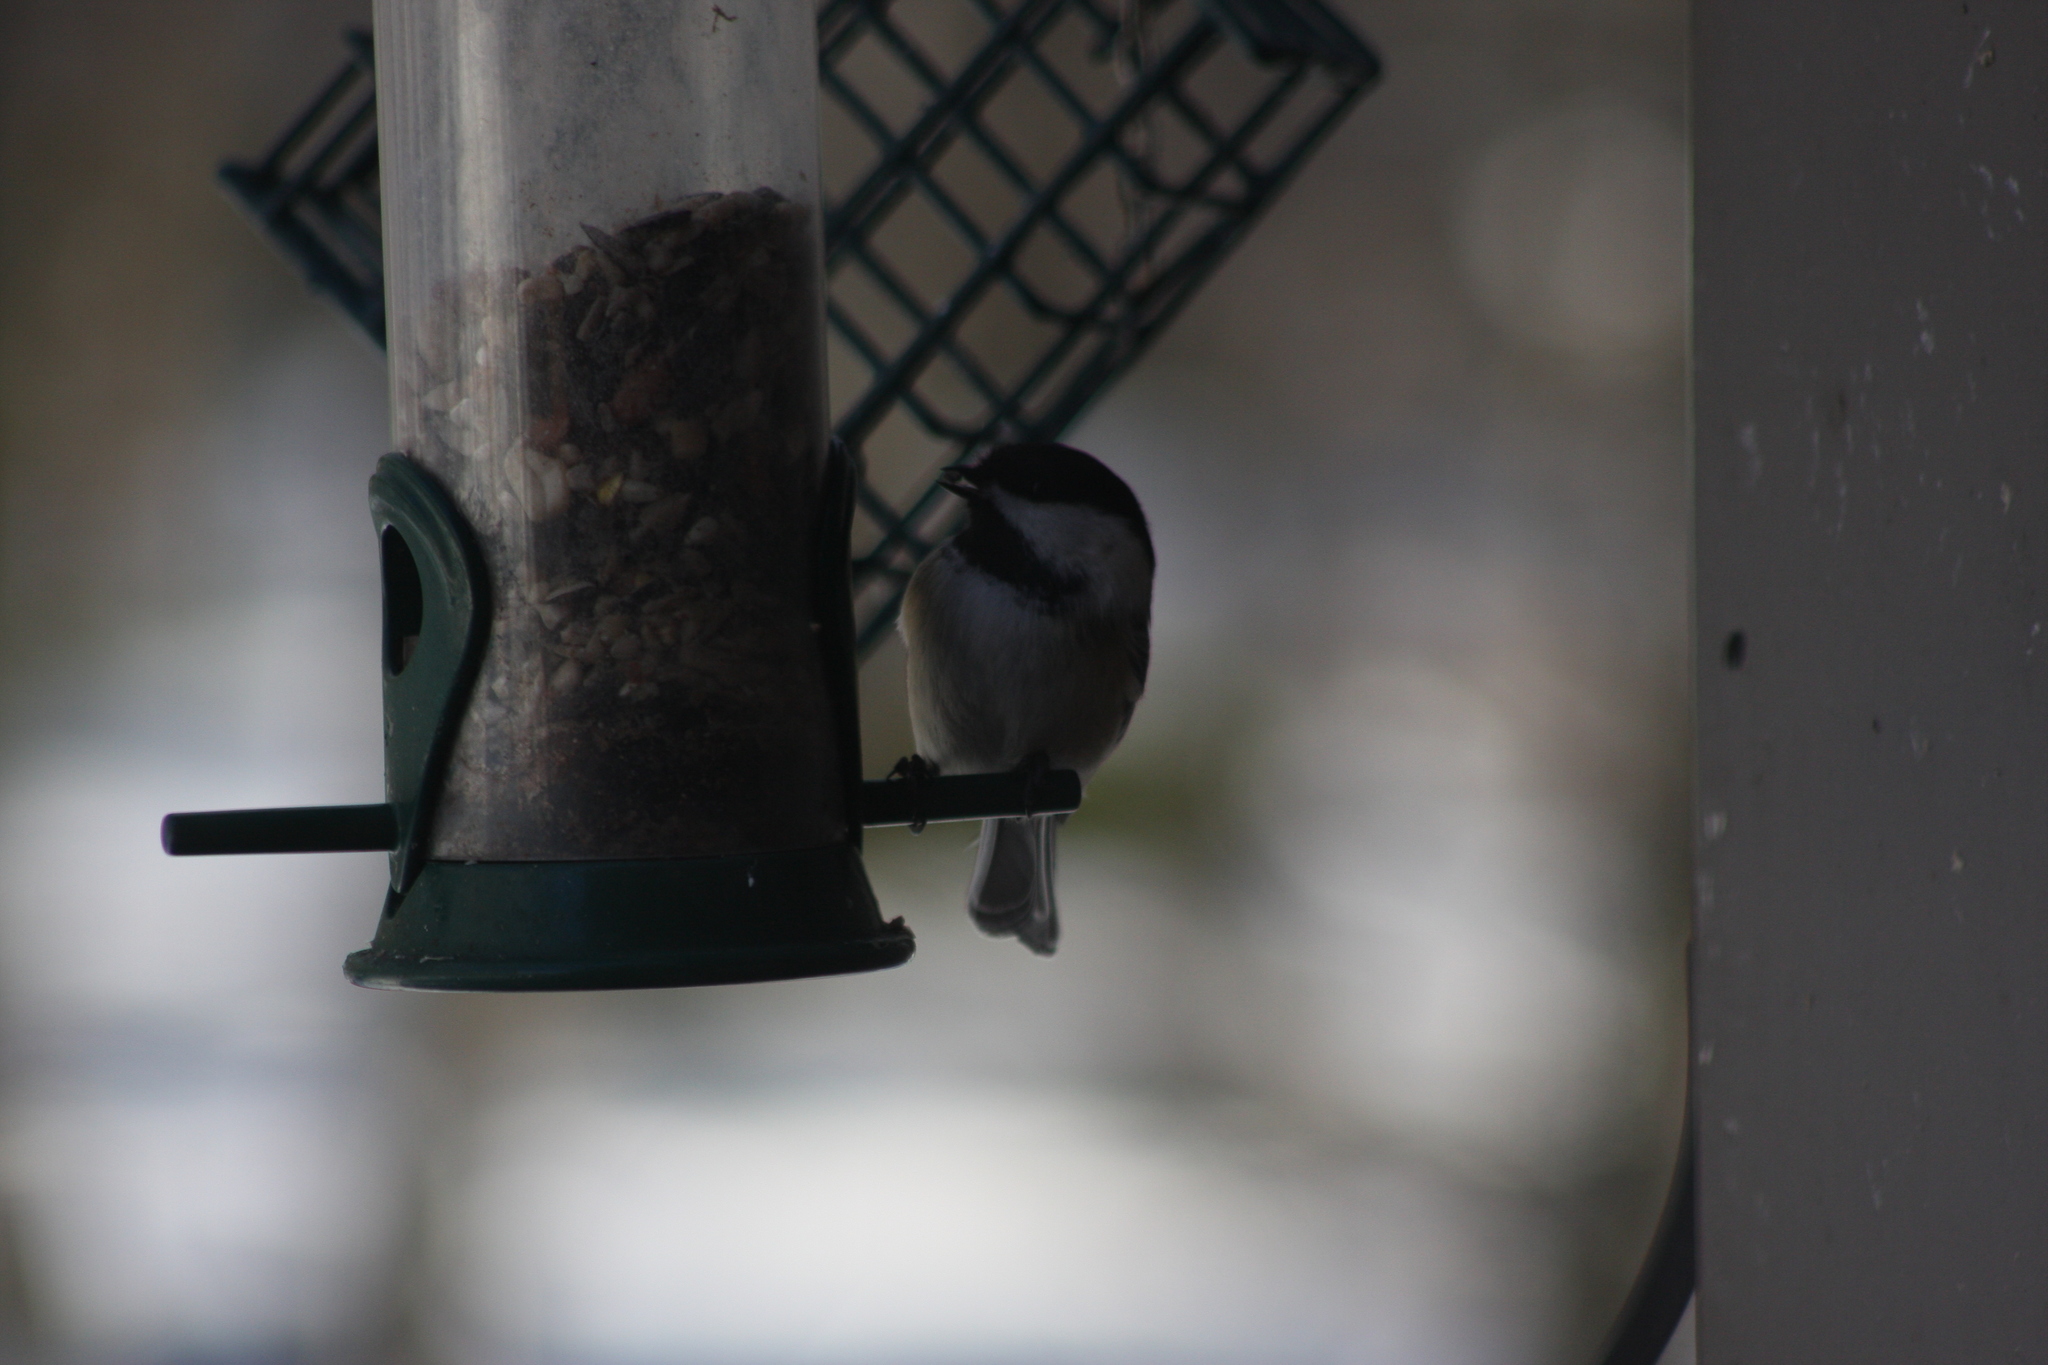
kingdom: Animalia
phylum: Chordata
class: Aves
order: Passeriformes
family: Paridae
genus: Poecile
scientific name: Poecile atricapillus
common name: Black-capped chickadee
